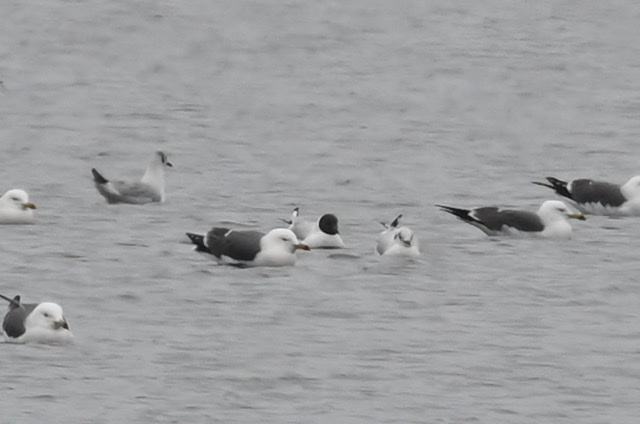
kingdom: Animalia
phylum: Chordata
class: Aves
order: Charadriiformes
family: Laridae
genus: Chroicocephalus
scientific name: Chroicocephalus ridibundus
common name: Black-headed gull
